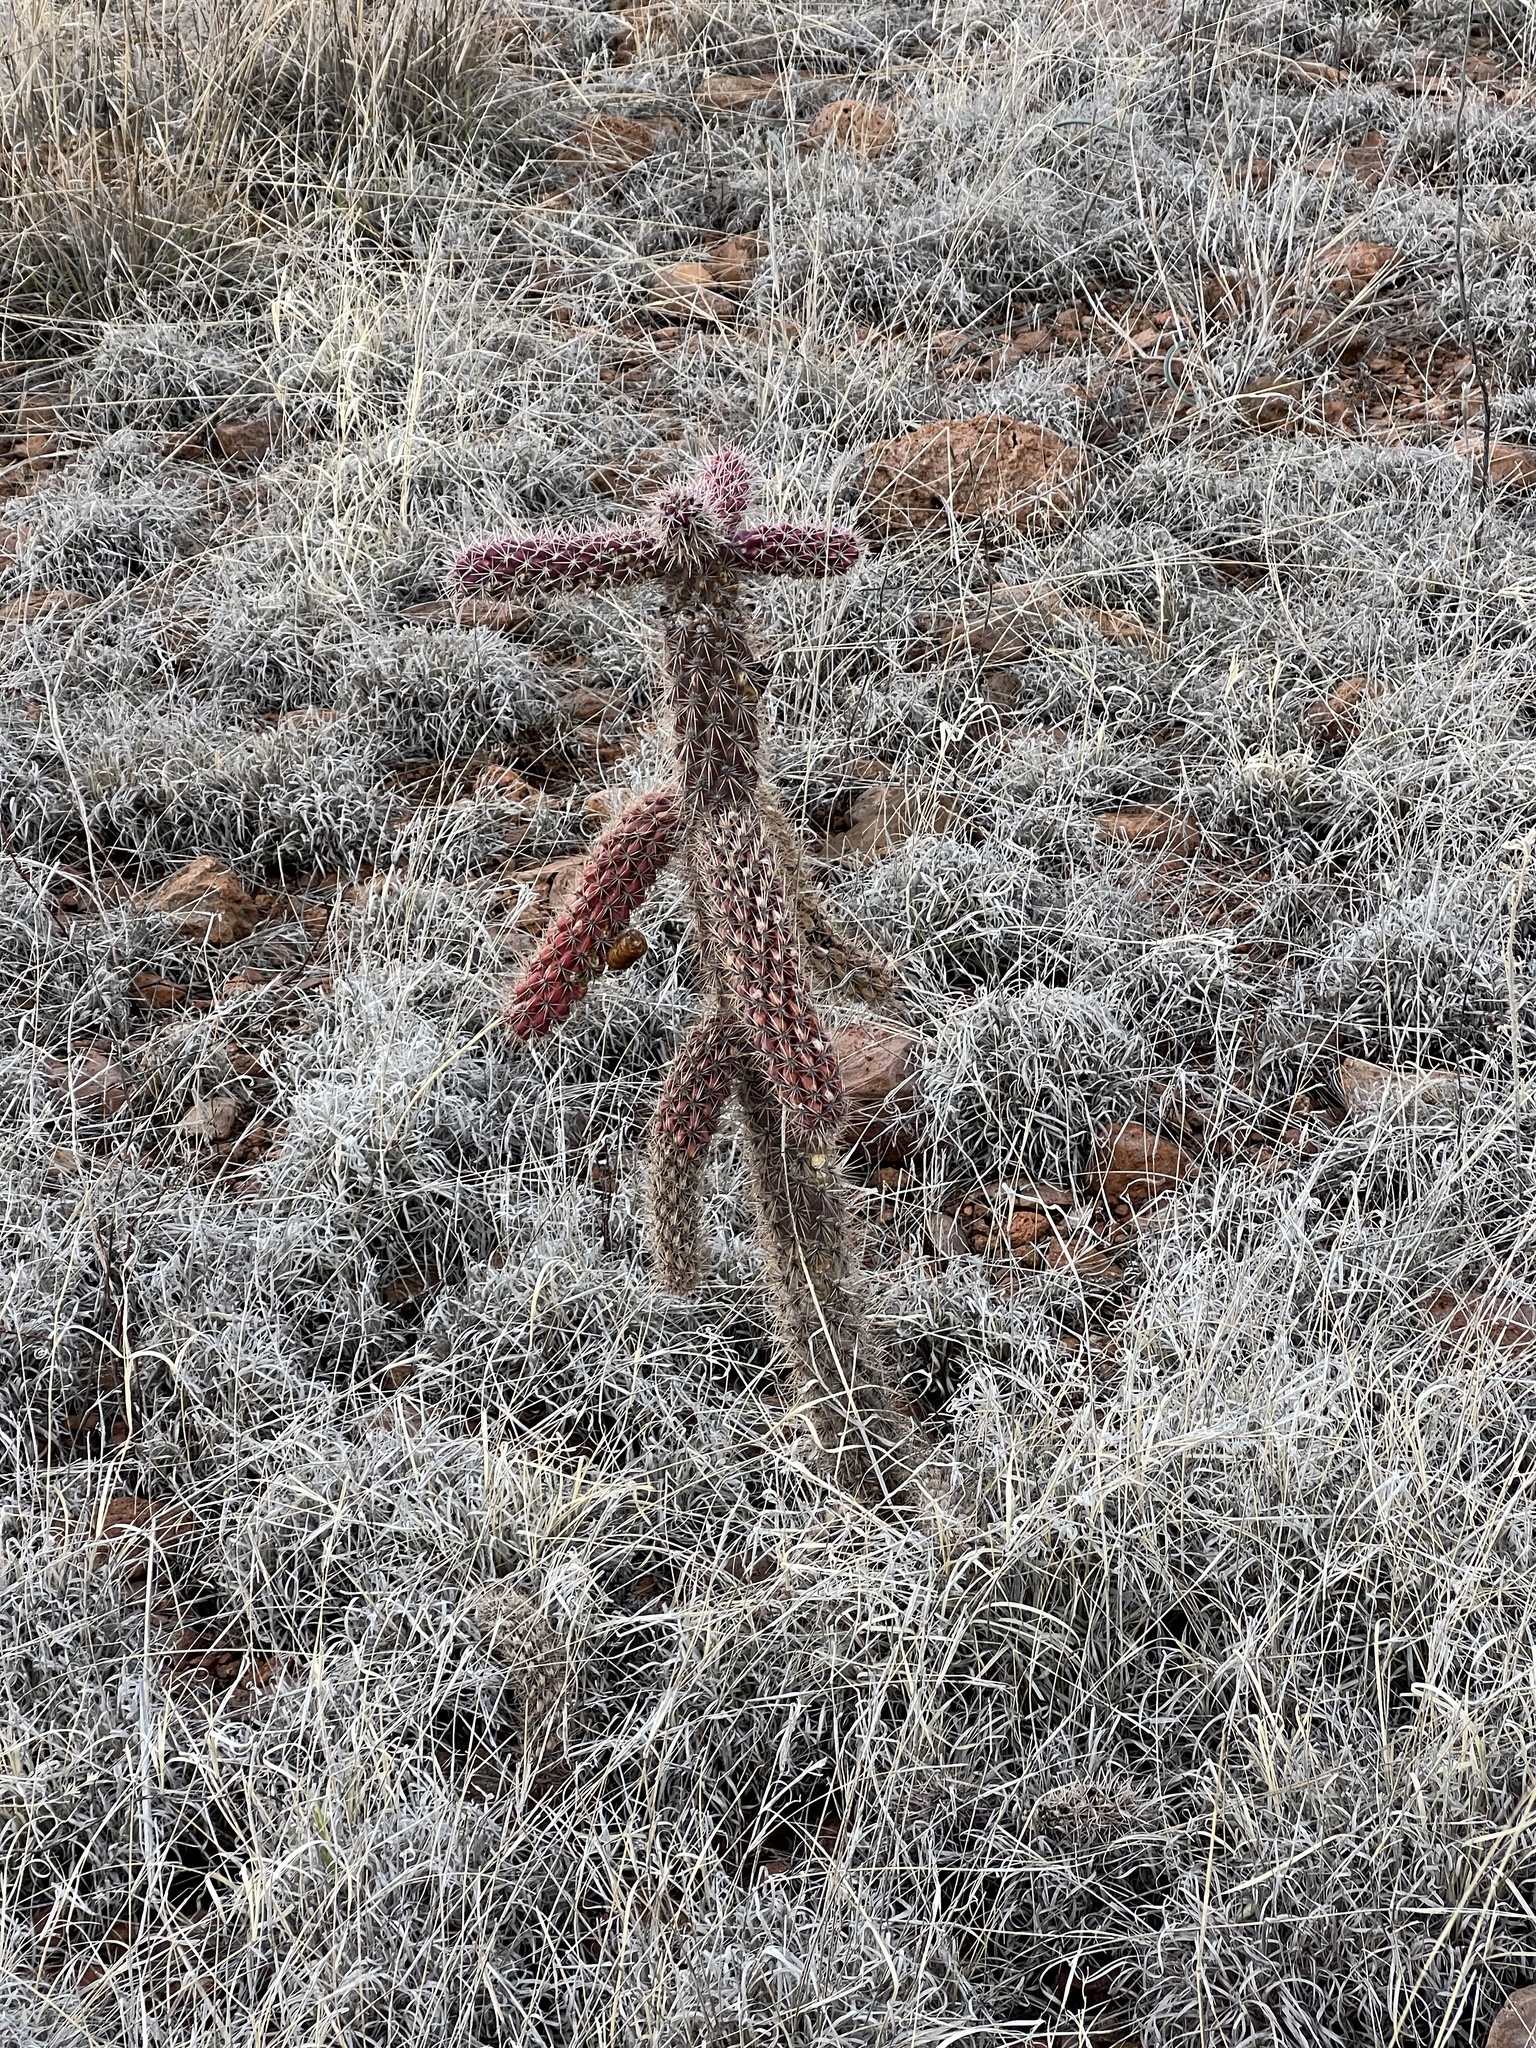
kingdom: Plantae
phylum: Tracheophyta
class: Magnoliopsida
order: Caryophyllales
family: Cactaceae
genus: Cylindropuntia
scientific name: Cylindropuntia imbricata
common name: Candelabrum cactus
